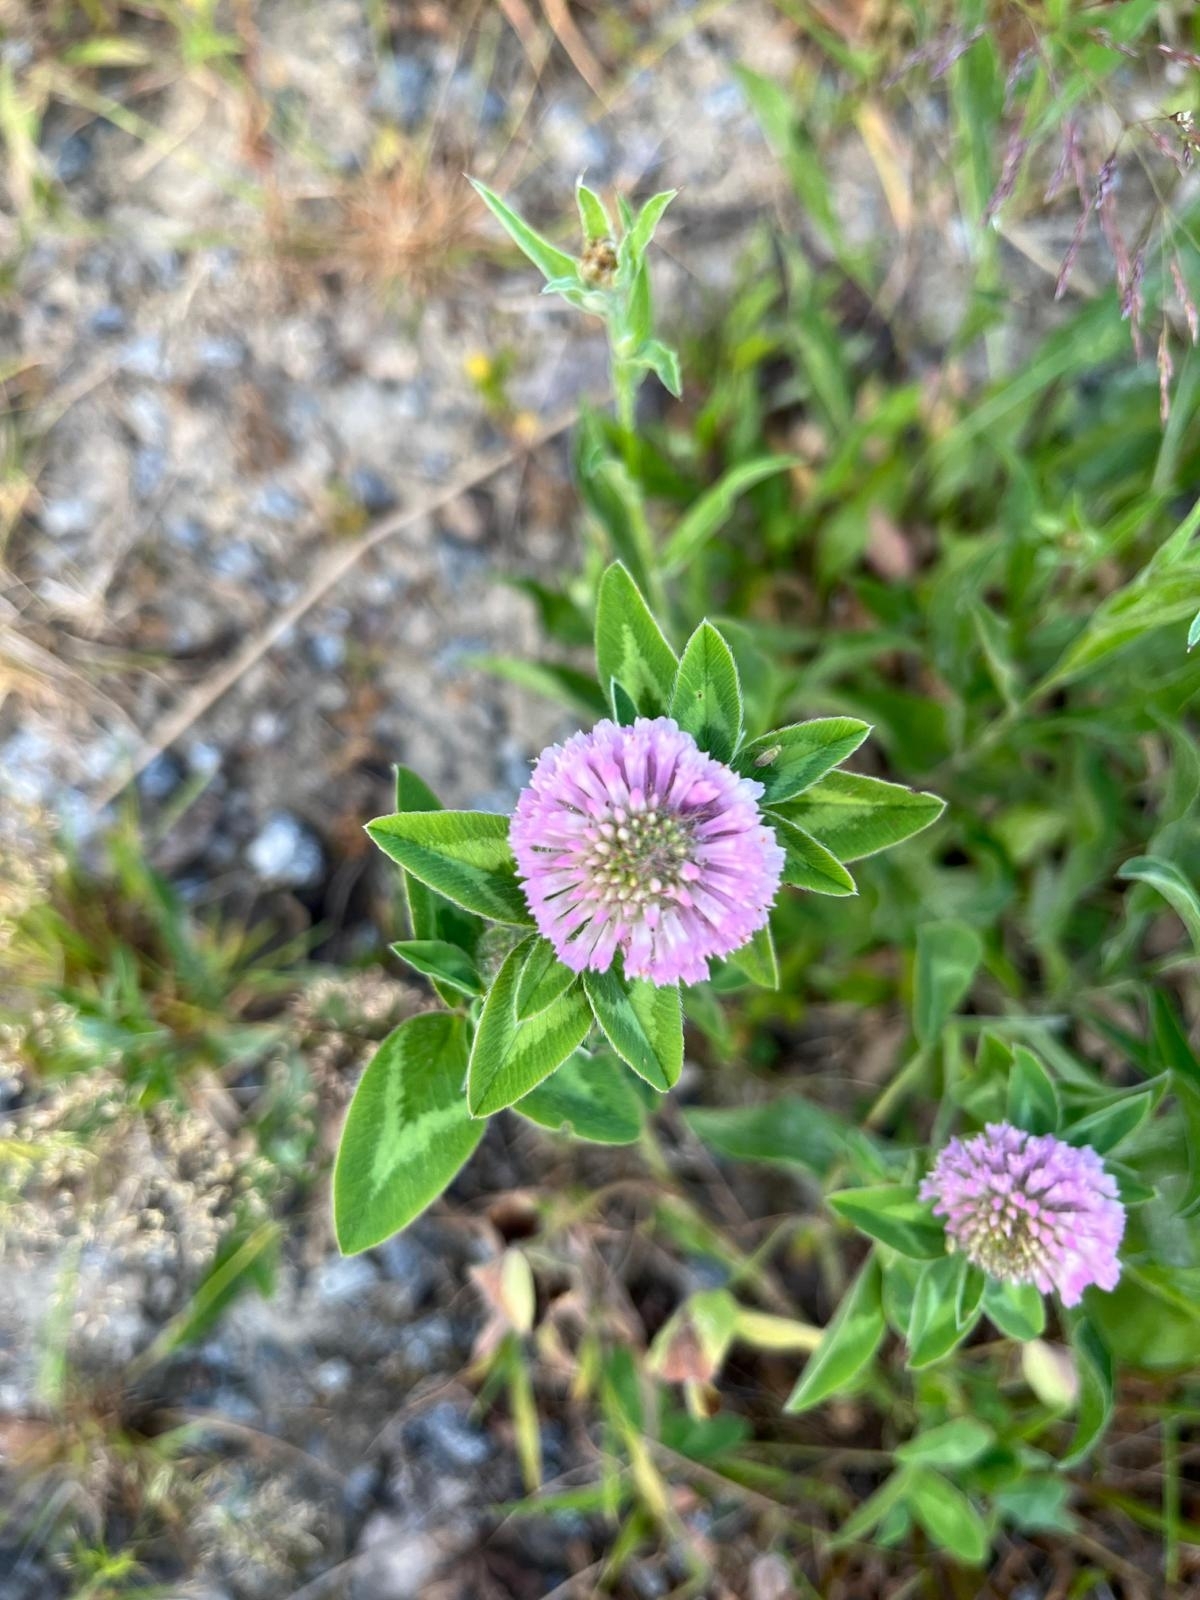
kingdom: Plantae
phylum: Tracheophyta
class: Magnoliopsida
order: Fabales
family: Fabaceae
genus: Trifolium
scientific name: Trifolium pratense
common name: Red clover
